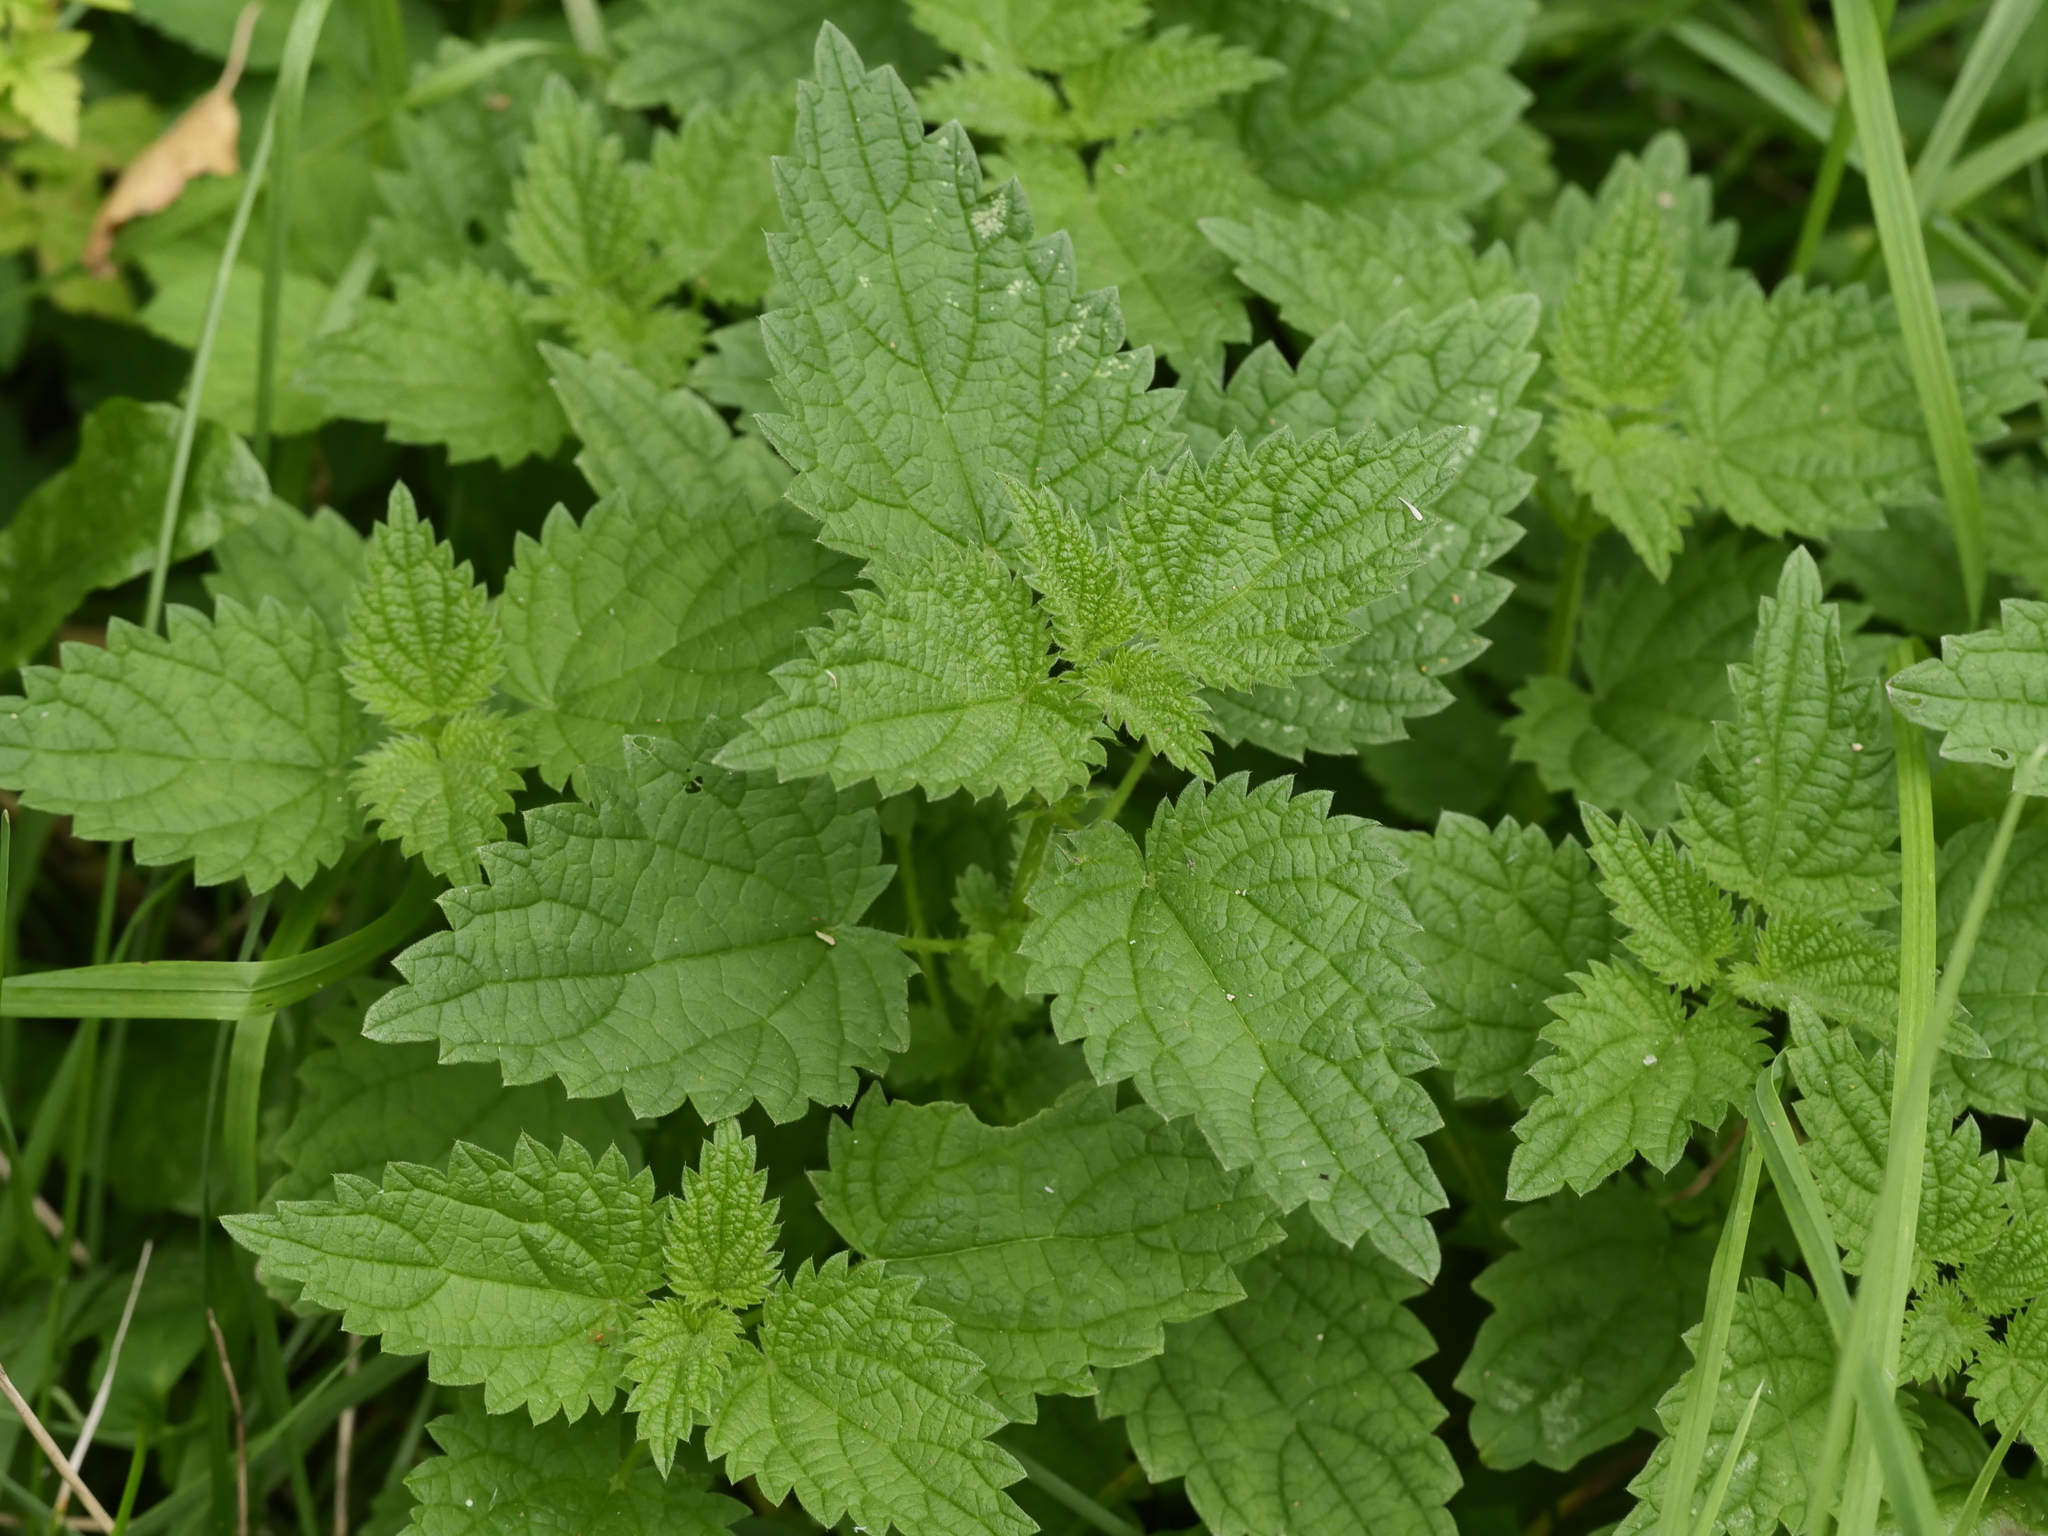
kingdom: Plantae
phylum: Tracheophyta
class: Magnoliopsida
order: Rosales
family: Urticaceae
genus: Urtica
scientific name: Urtica dioica
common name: Common nettle
